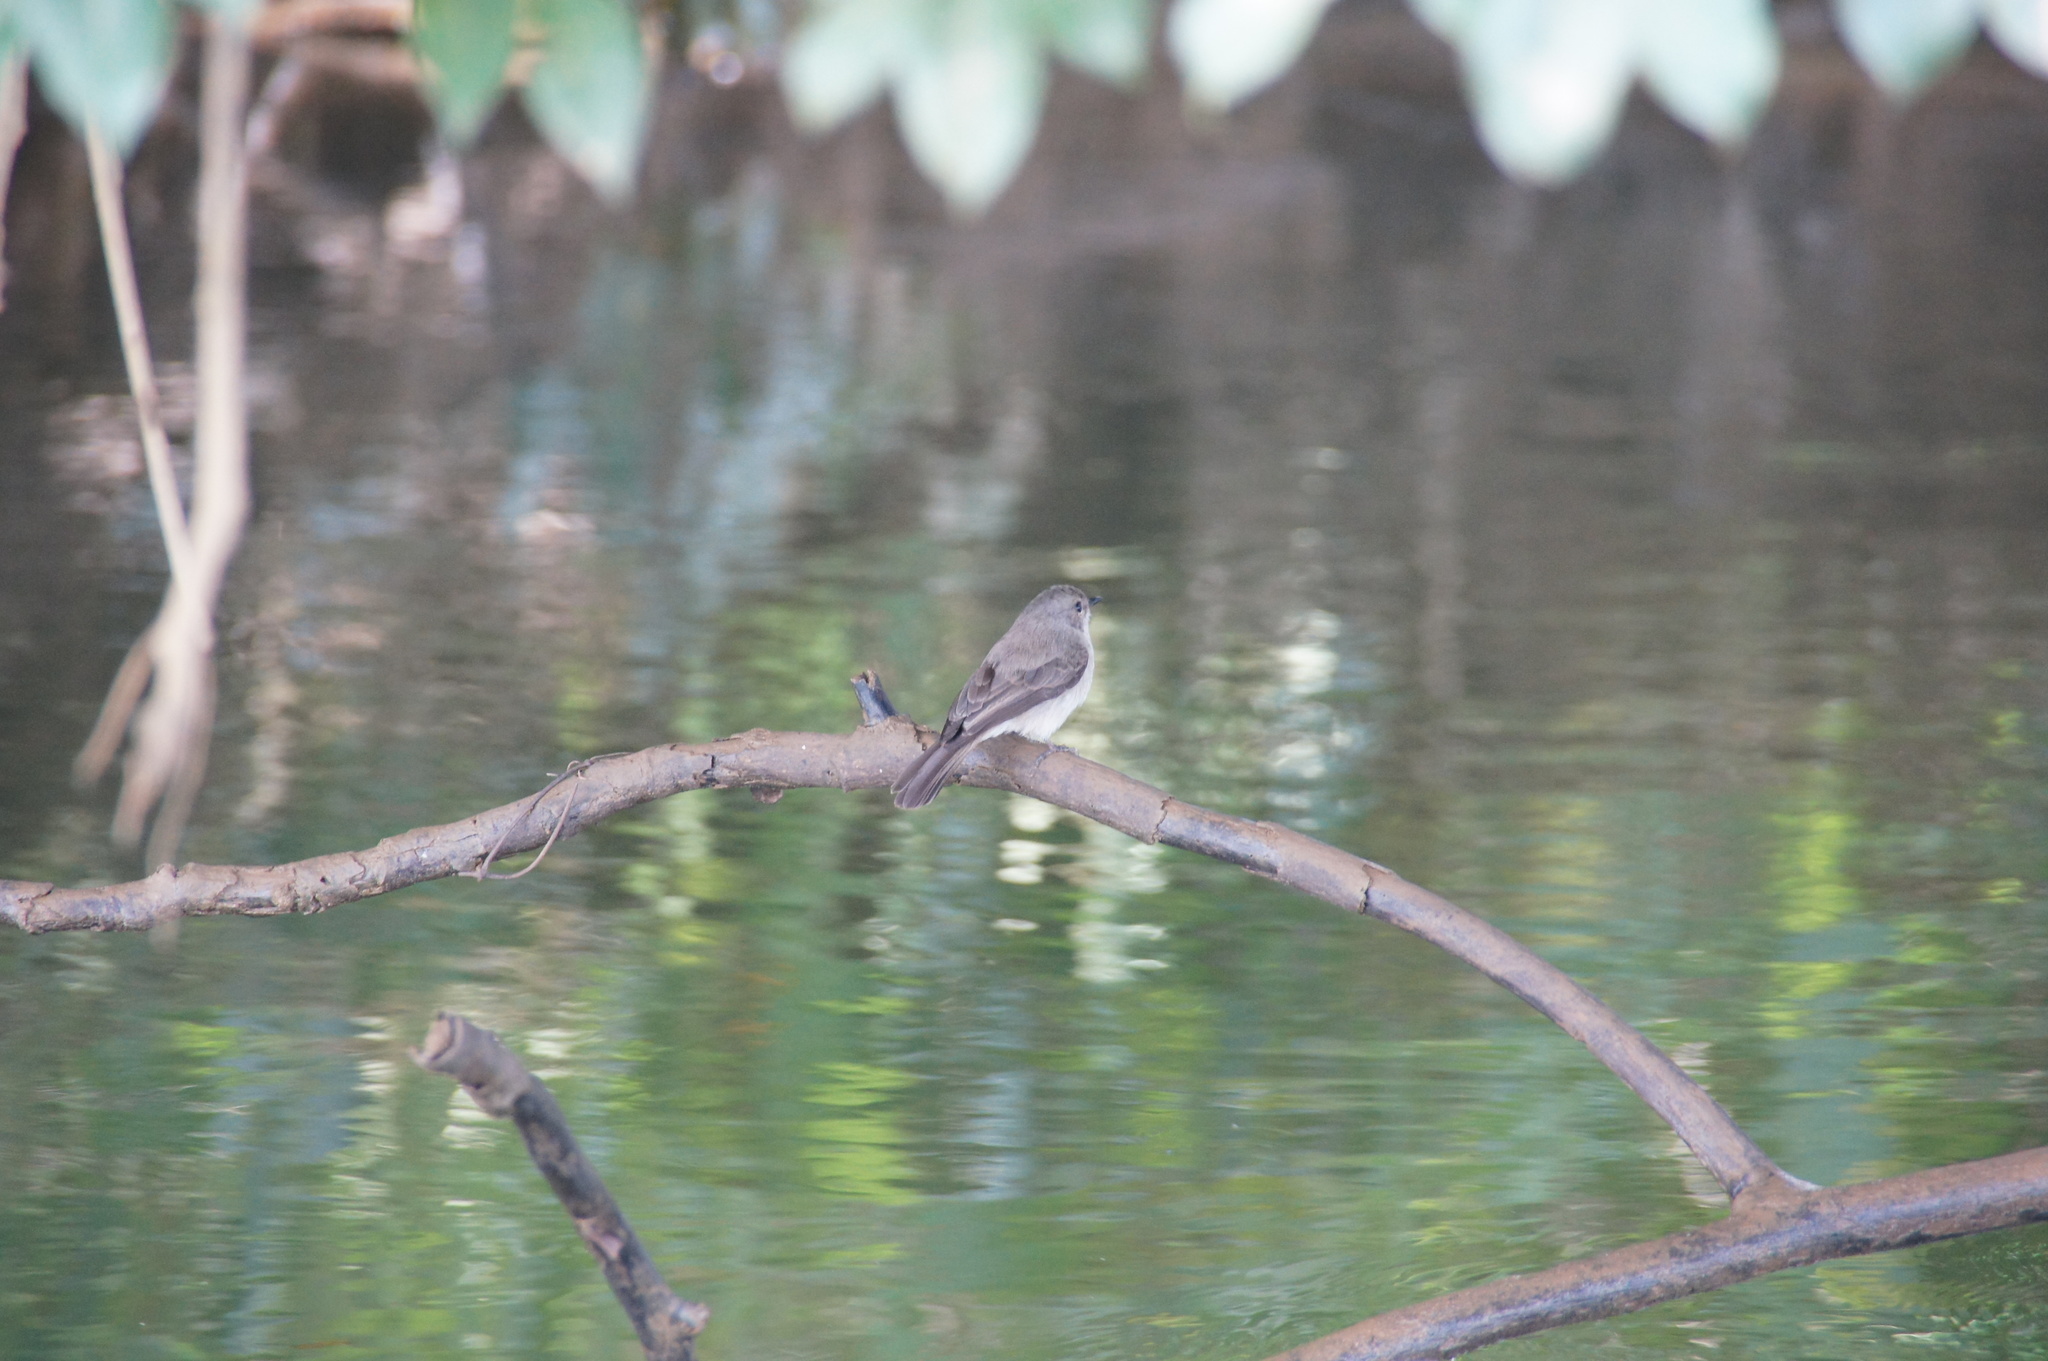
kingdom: Animalia
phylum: Chordata
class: Aves
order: Passeriformes
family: Muscicapidae
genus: Muscicapa
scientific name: Muscicapa aquatica
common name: Swamp flycatcher
